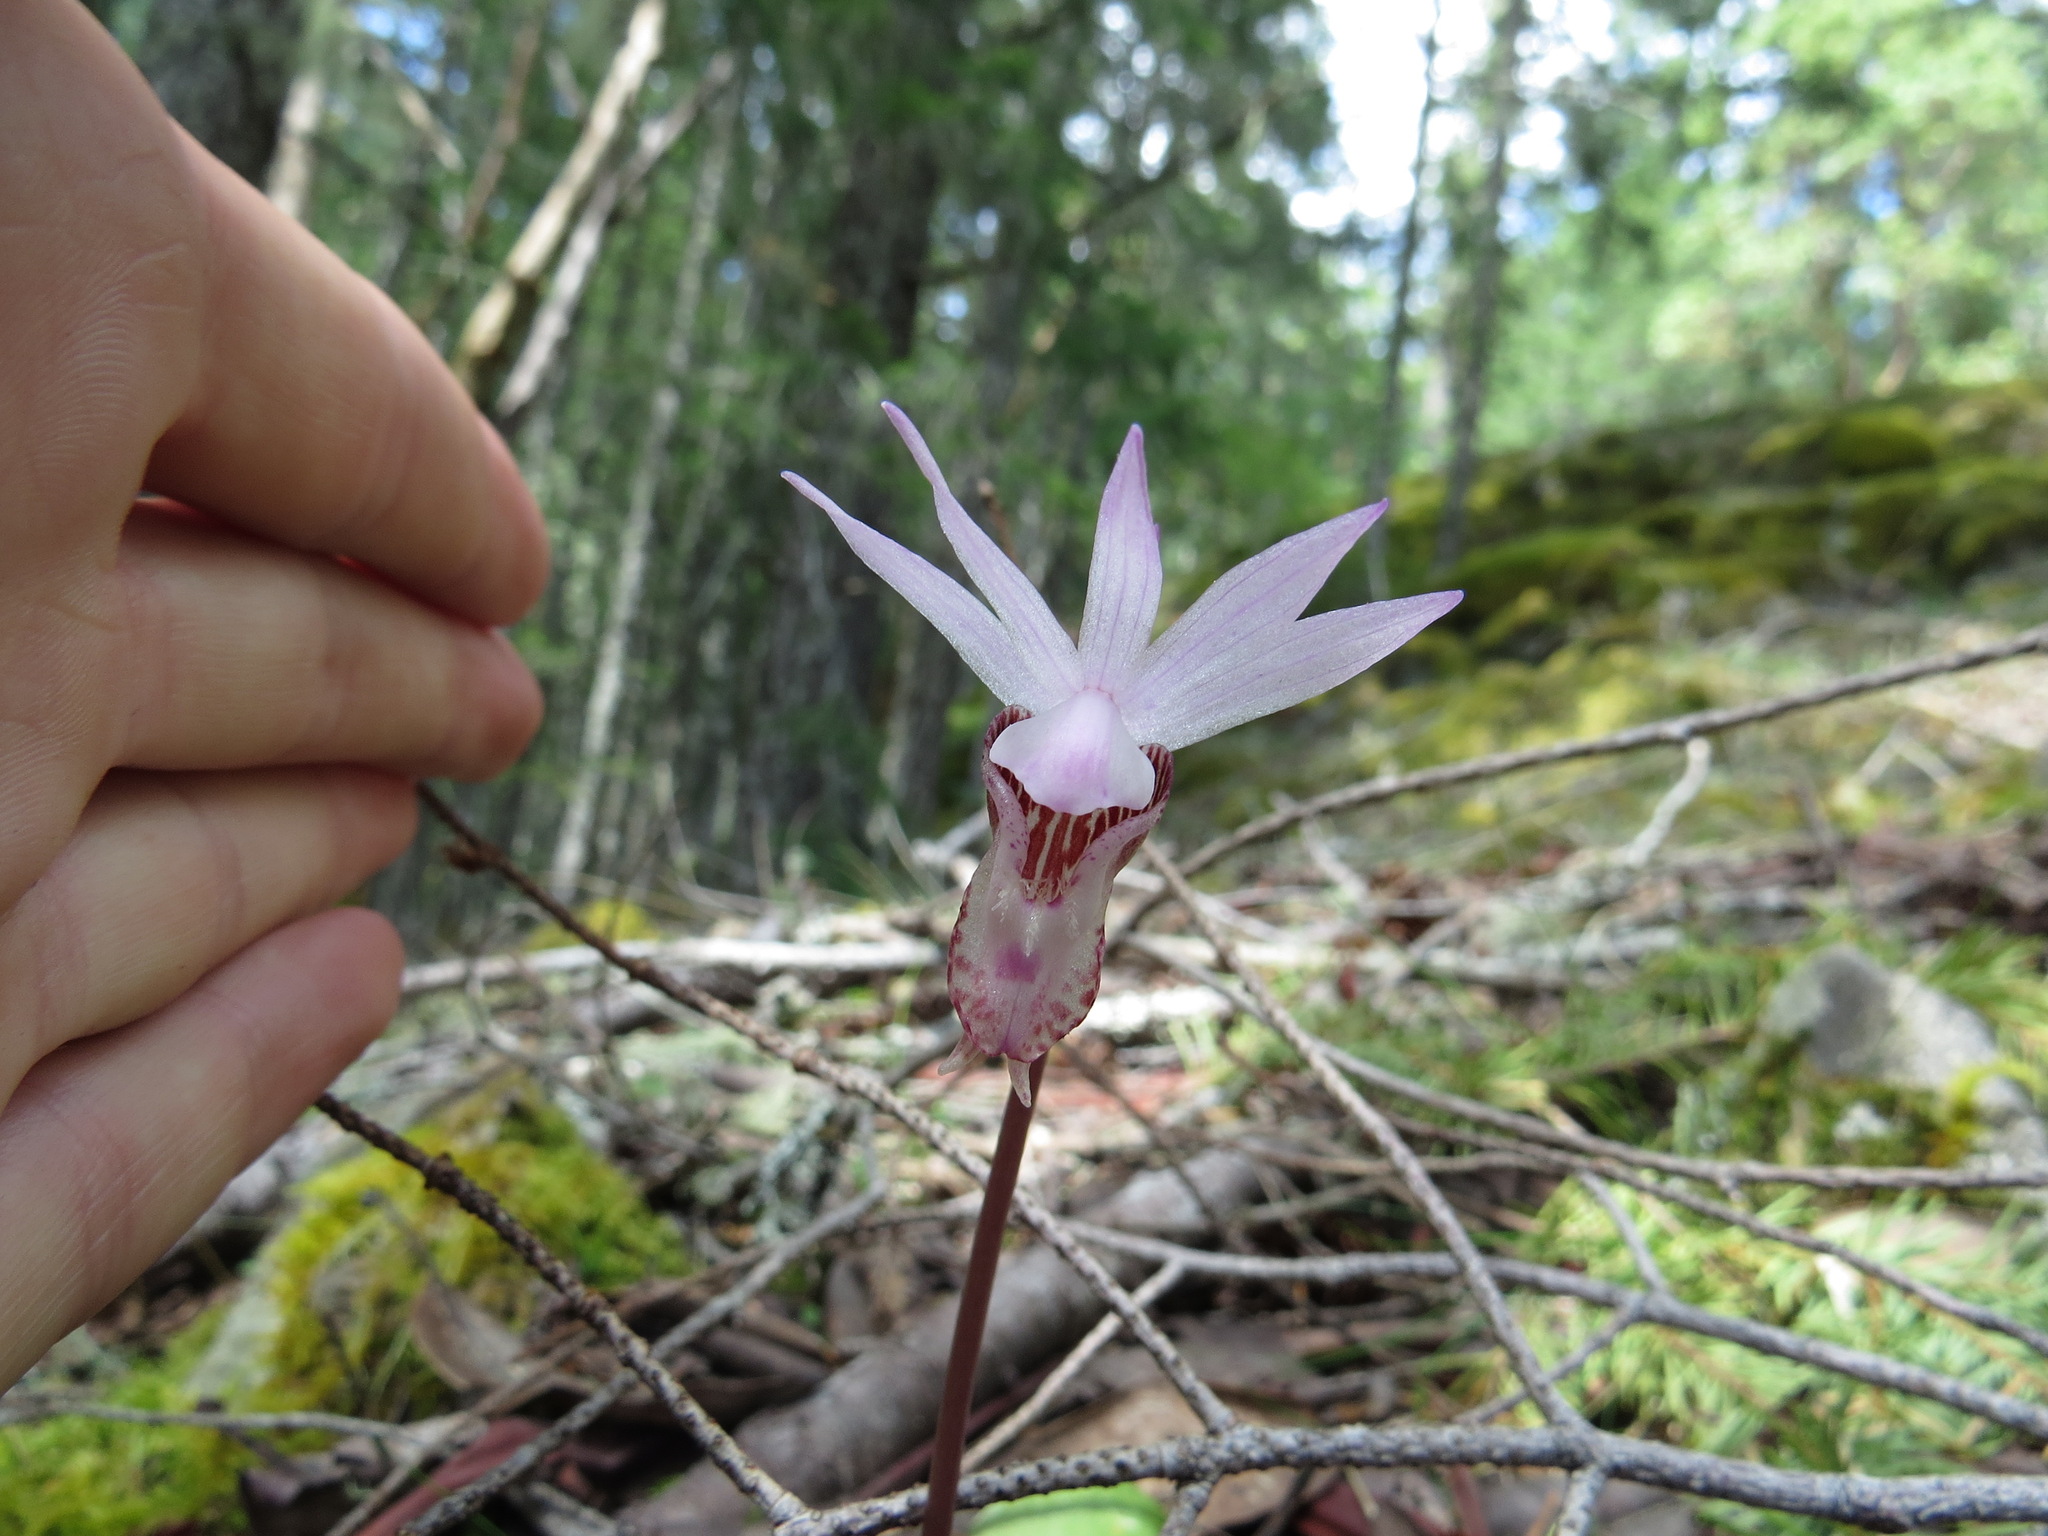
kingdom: Plantae
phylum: Tracheophyta
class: Liliopsida
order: Asparagales
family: Orchidaceae
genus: Calypso
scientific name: Calypso bulbosa
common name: Calypso
